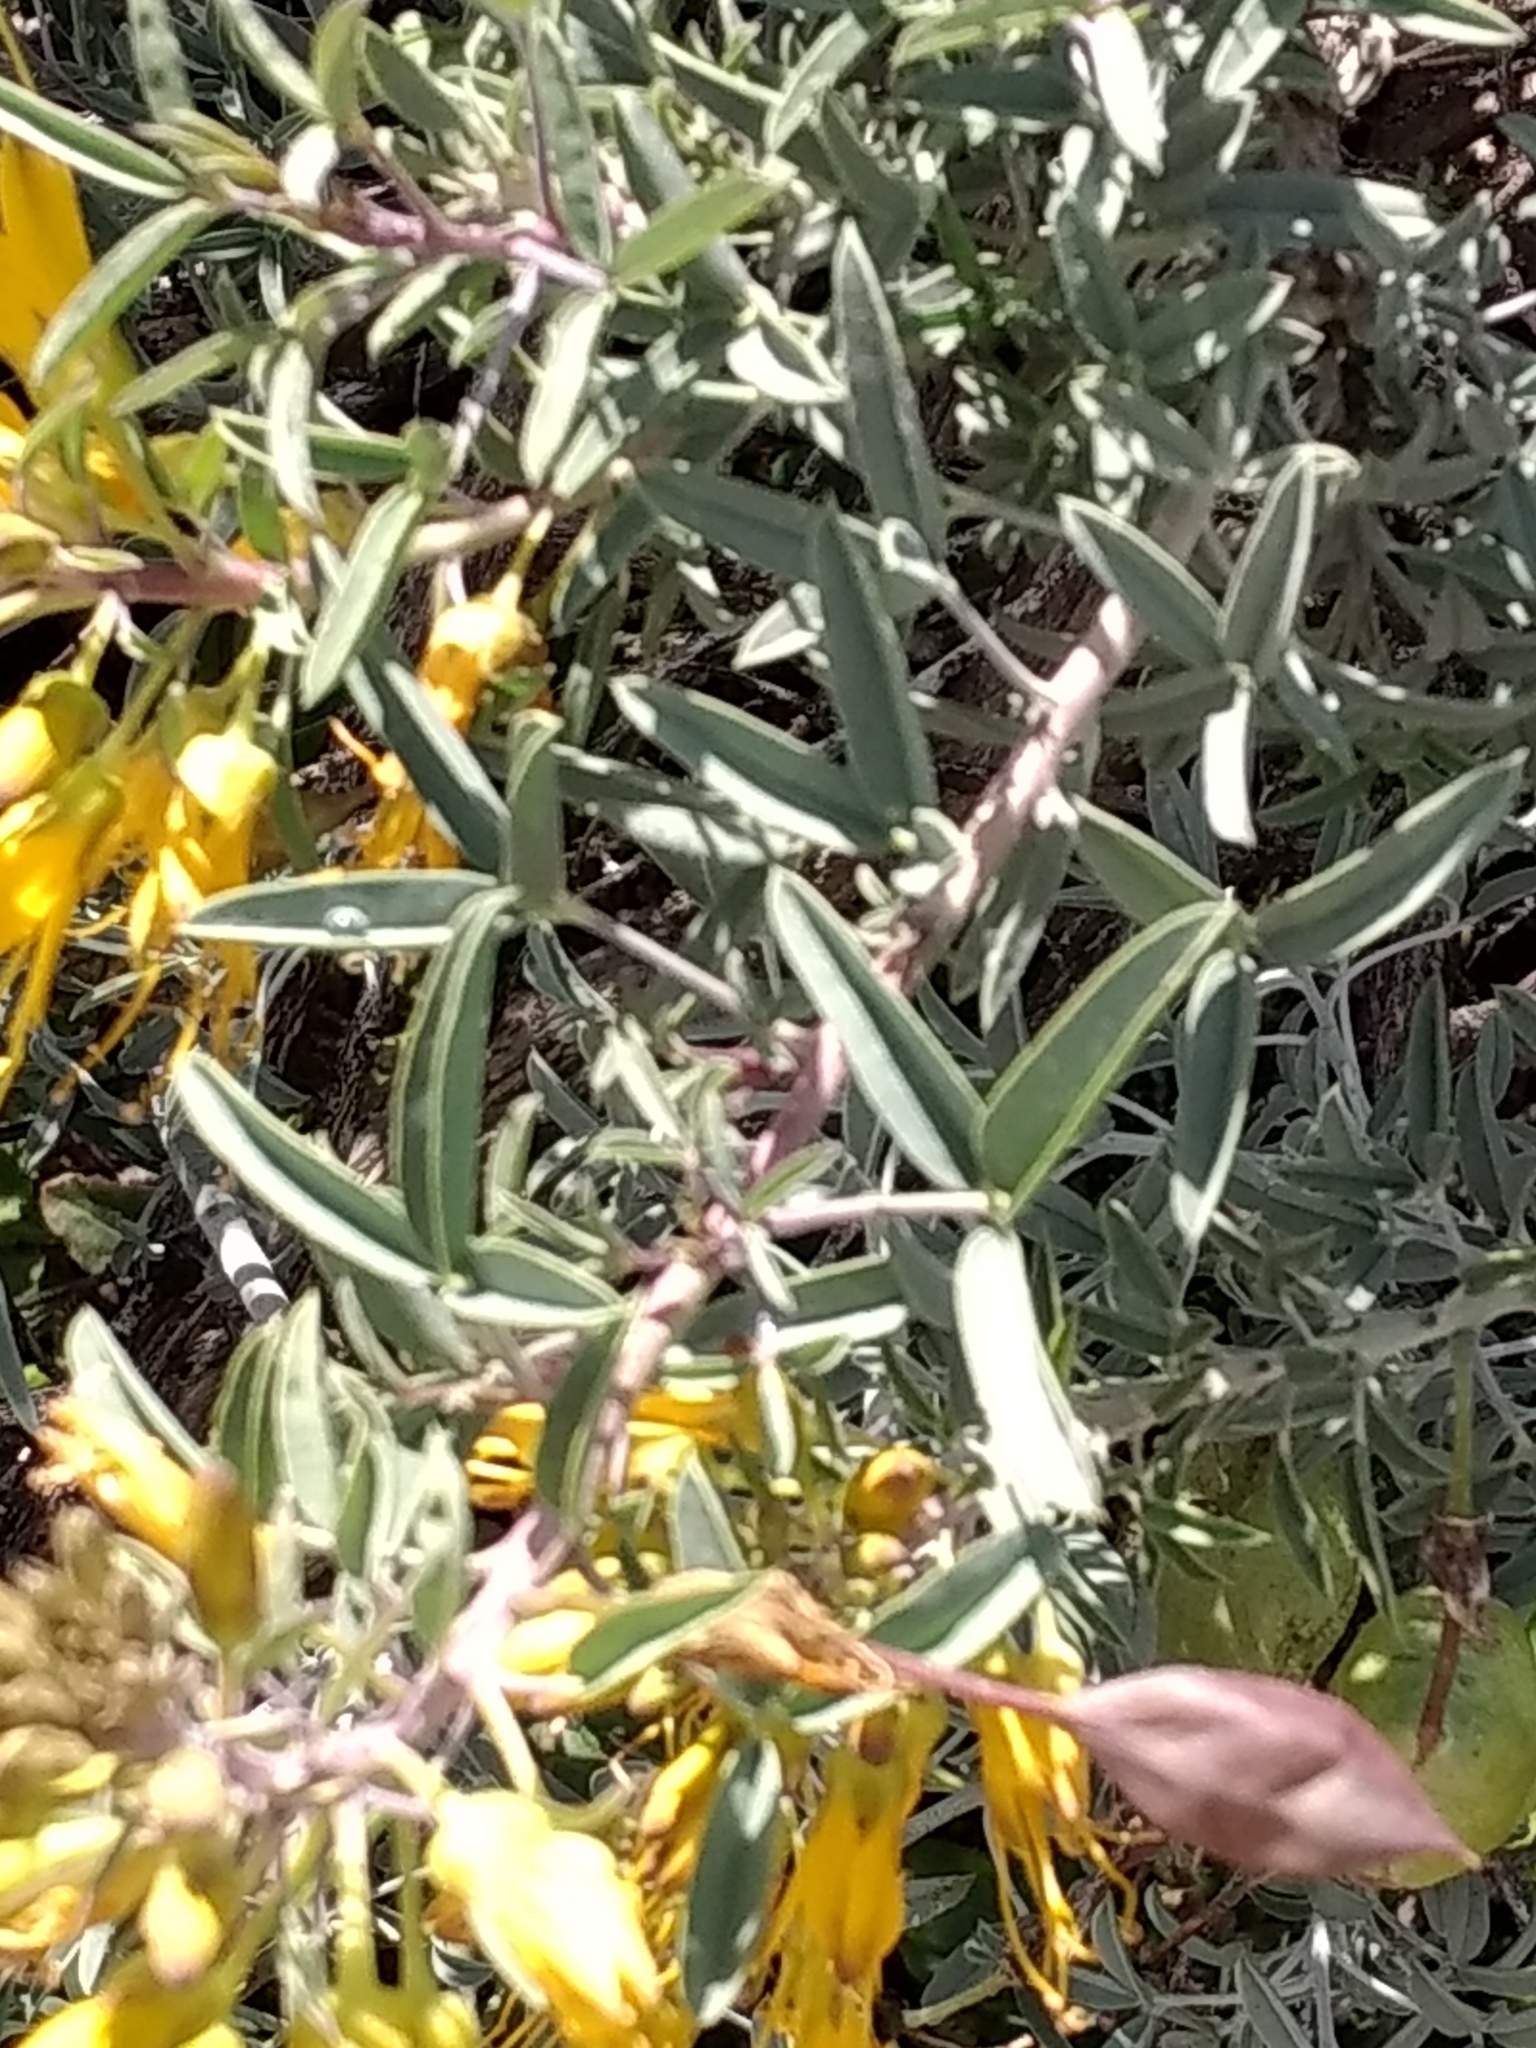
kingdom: Plantae
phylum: Tracheophyta
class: Magnoliopsida
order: Brassicales
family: Cleomaceae
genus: Cleomella
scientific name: Cleomella arborea
